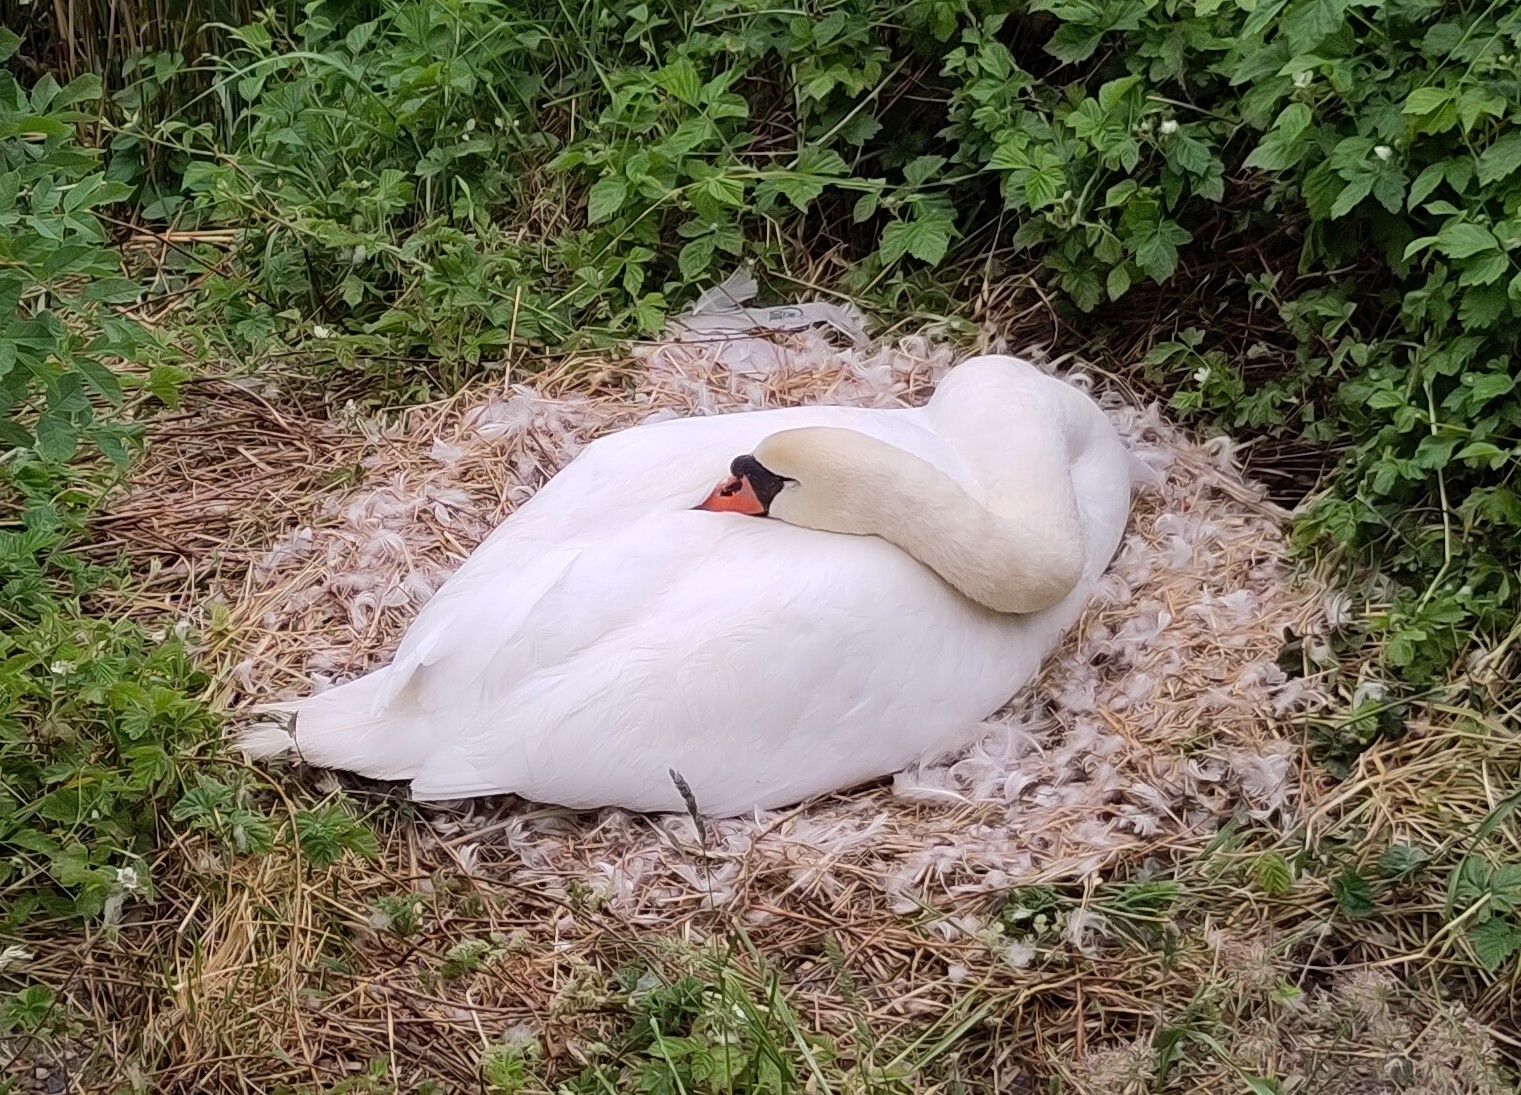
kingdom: Animalia
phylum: Chordata
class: Aves
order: Anseriformes
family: Anatidae
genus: Cygnus
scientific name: Cygnus olor
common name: Mute swan
